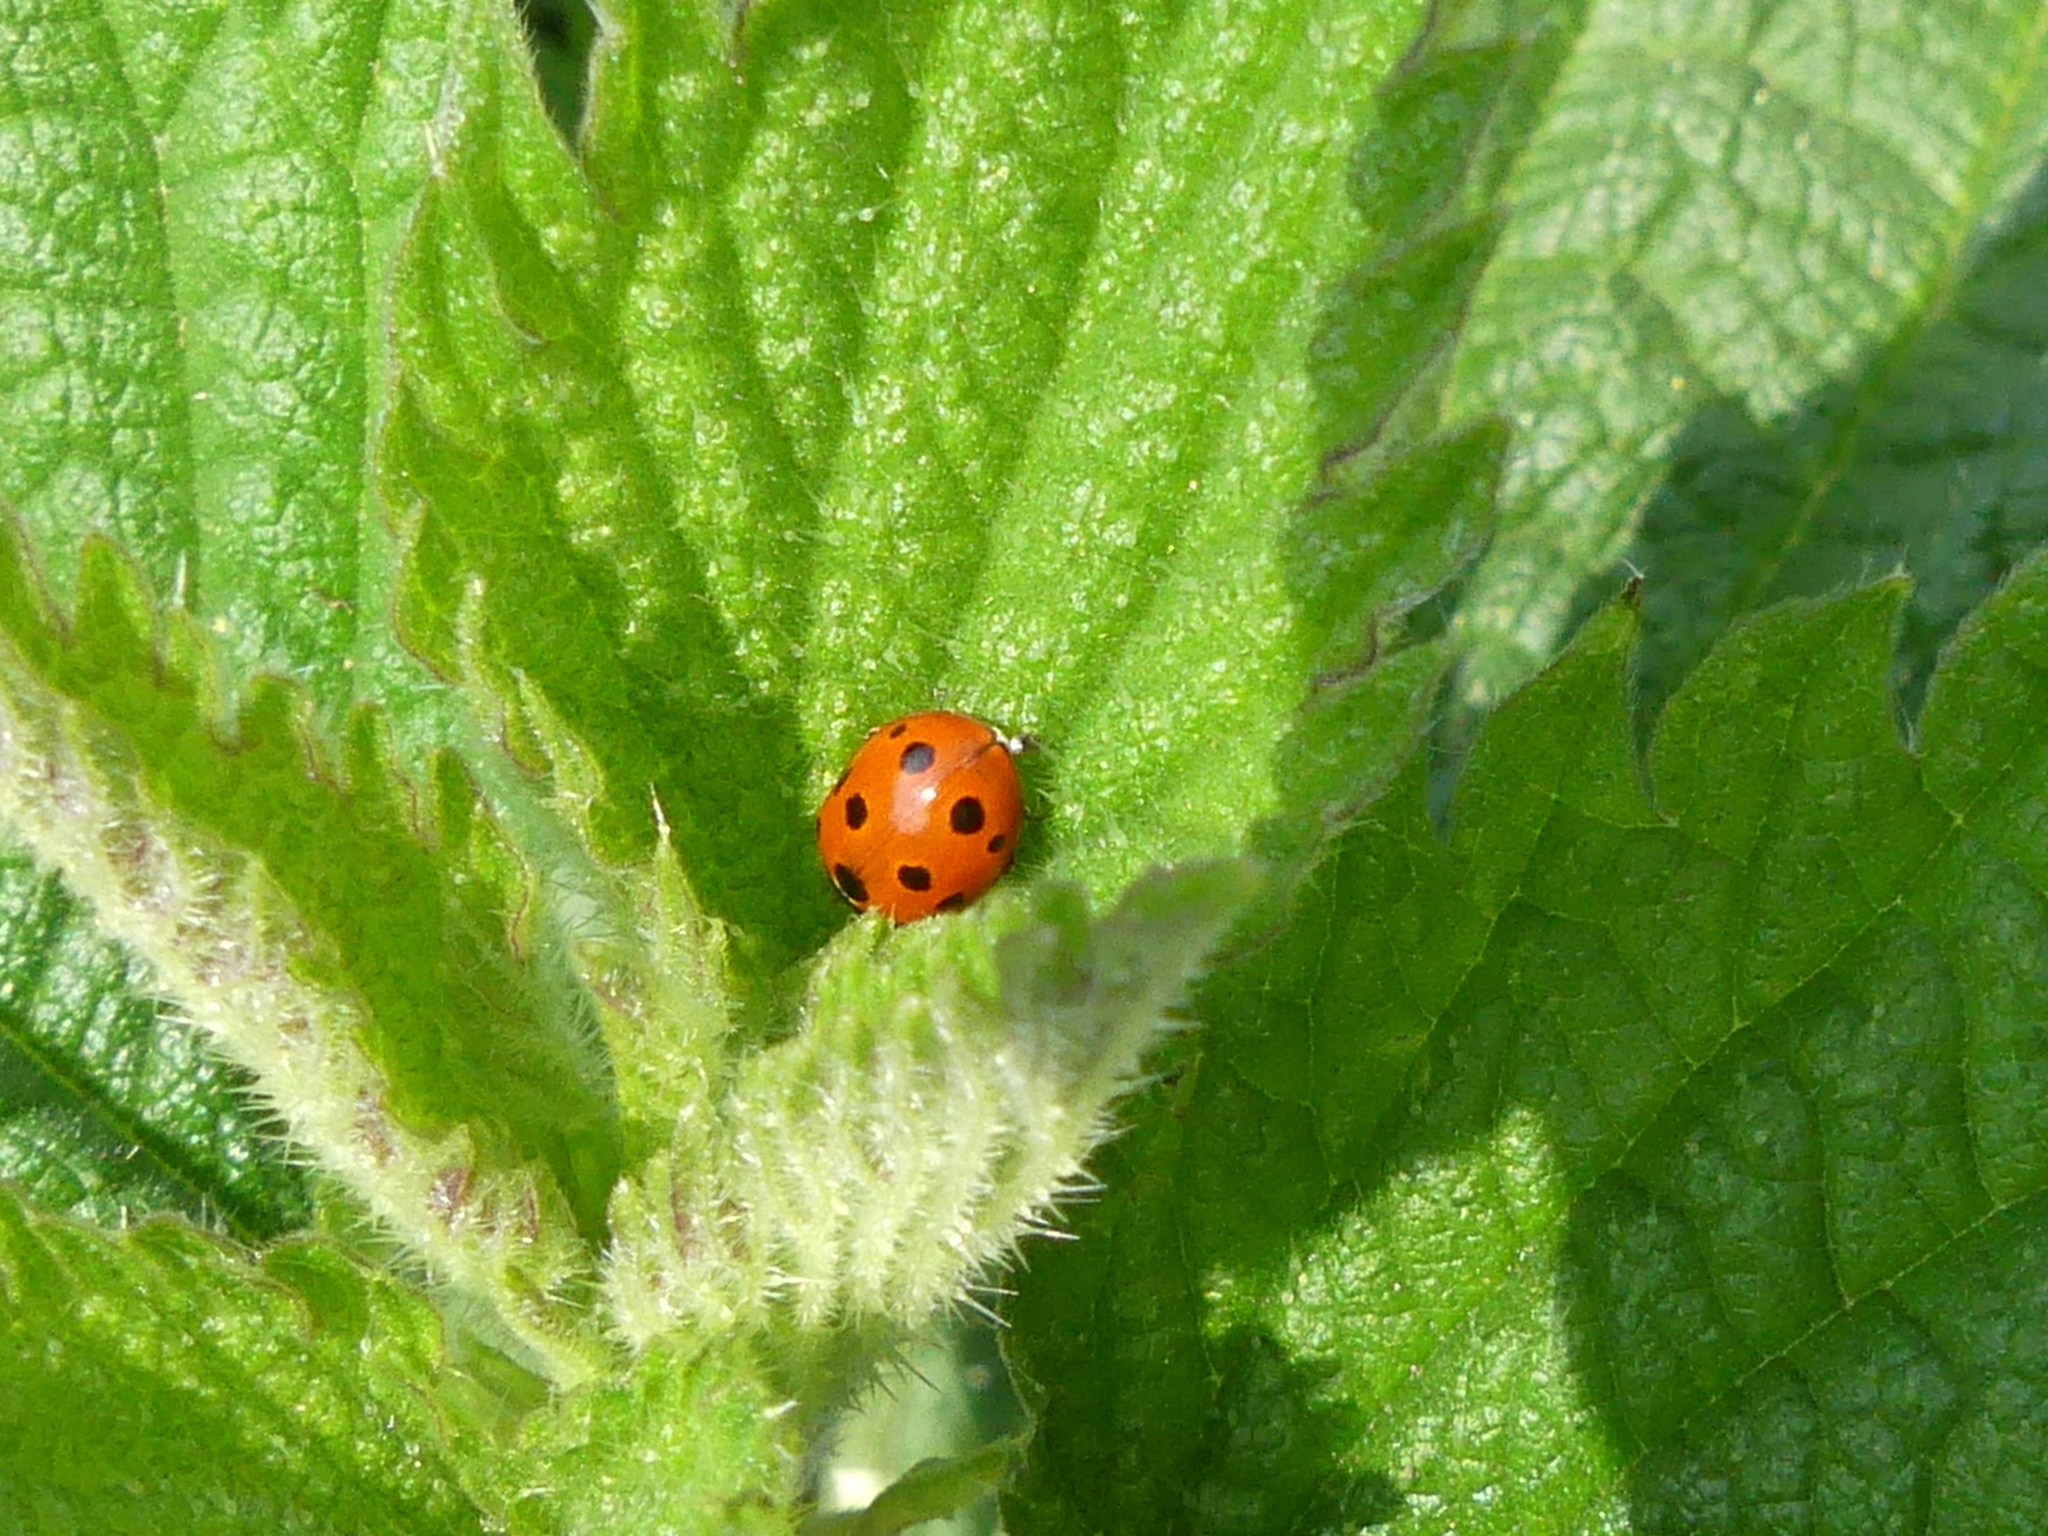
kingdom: Animalia
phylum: Arthropoda
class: Insecta
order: Coleoptera
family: Coccinellidae
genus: Coccinella
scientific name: Coccinella undecimpunctata
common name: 11-spot ladybird
